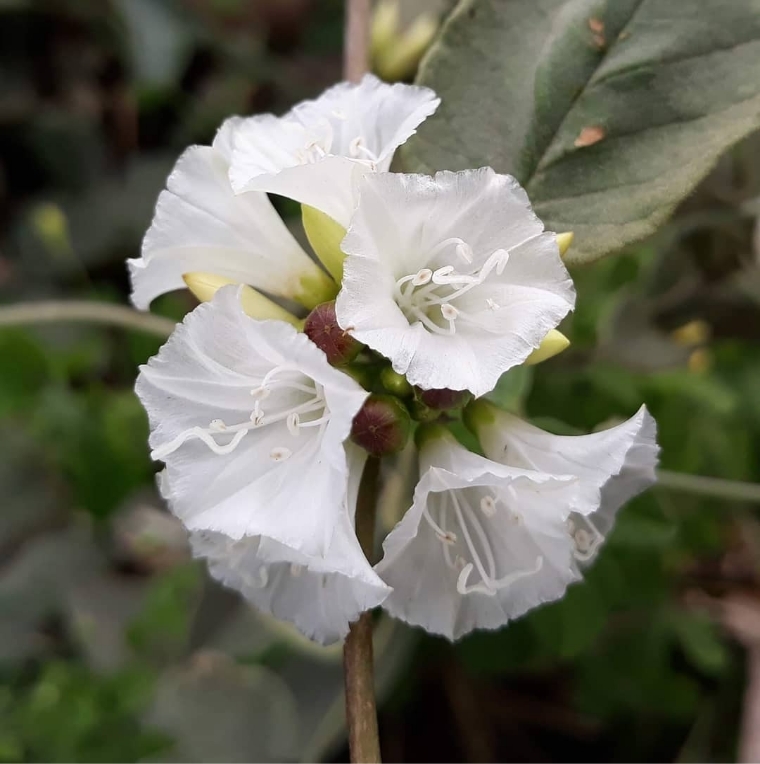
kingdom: Plantae
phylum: Tracheophyta
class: Magnoliopsida
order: Solanales
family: Convolvulaceae
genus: Jacquemontia
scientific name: Jacquemontia nodiflora
